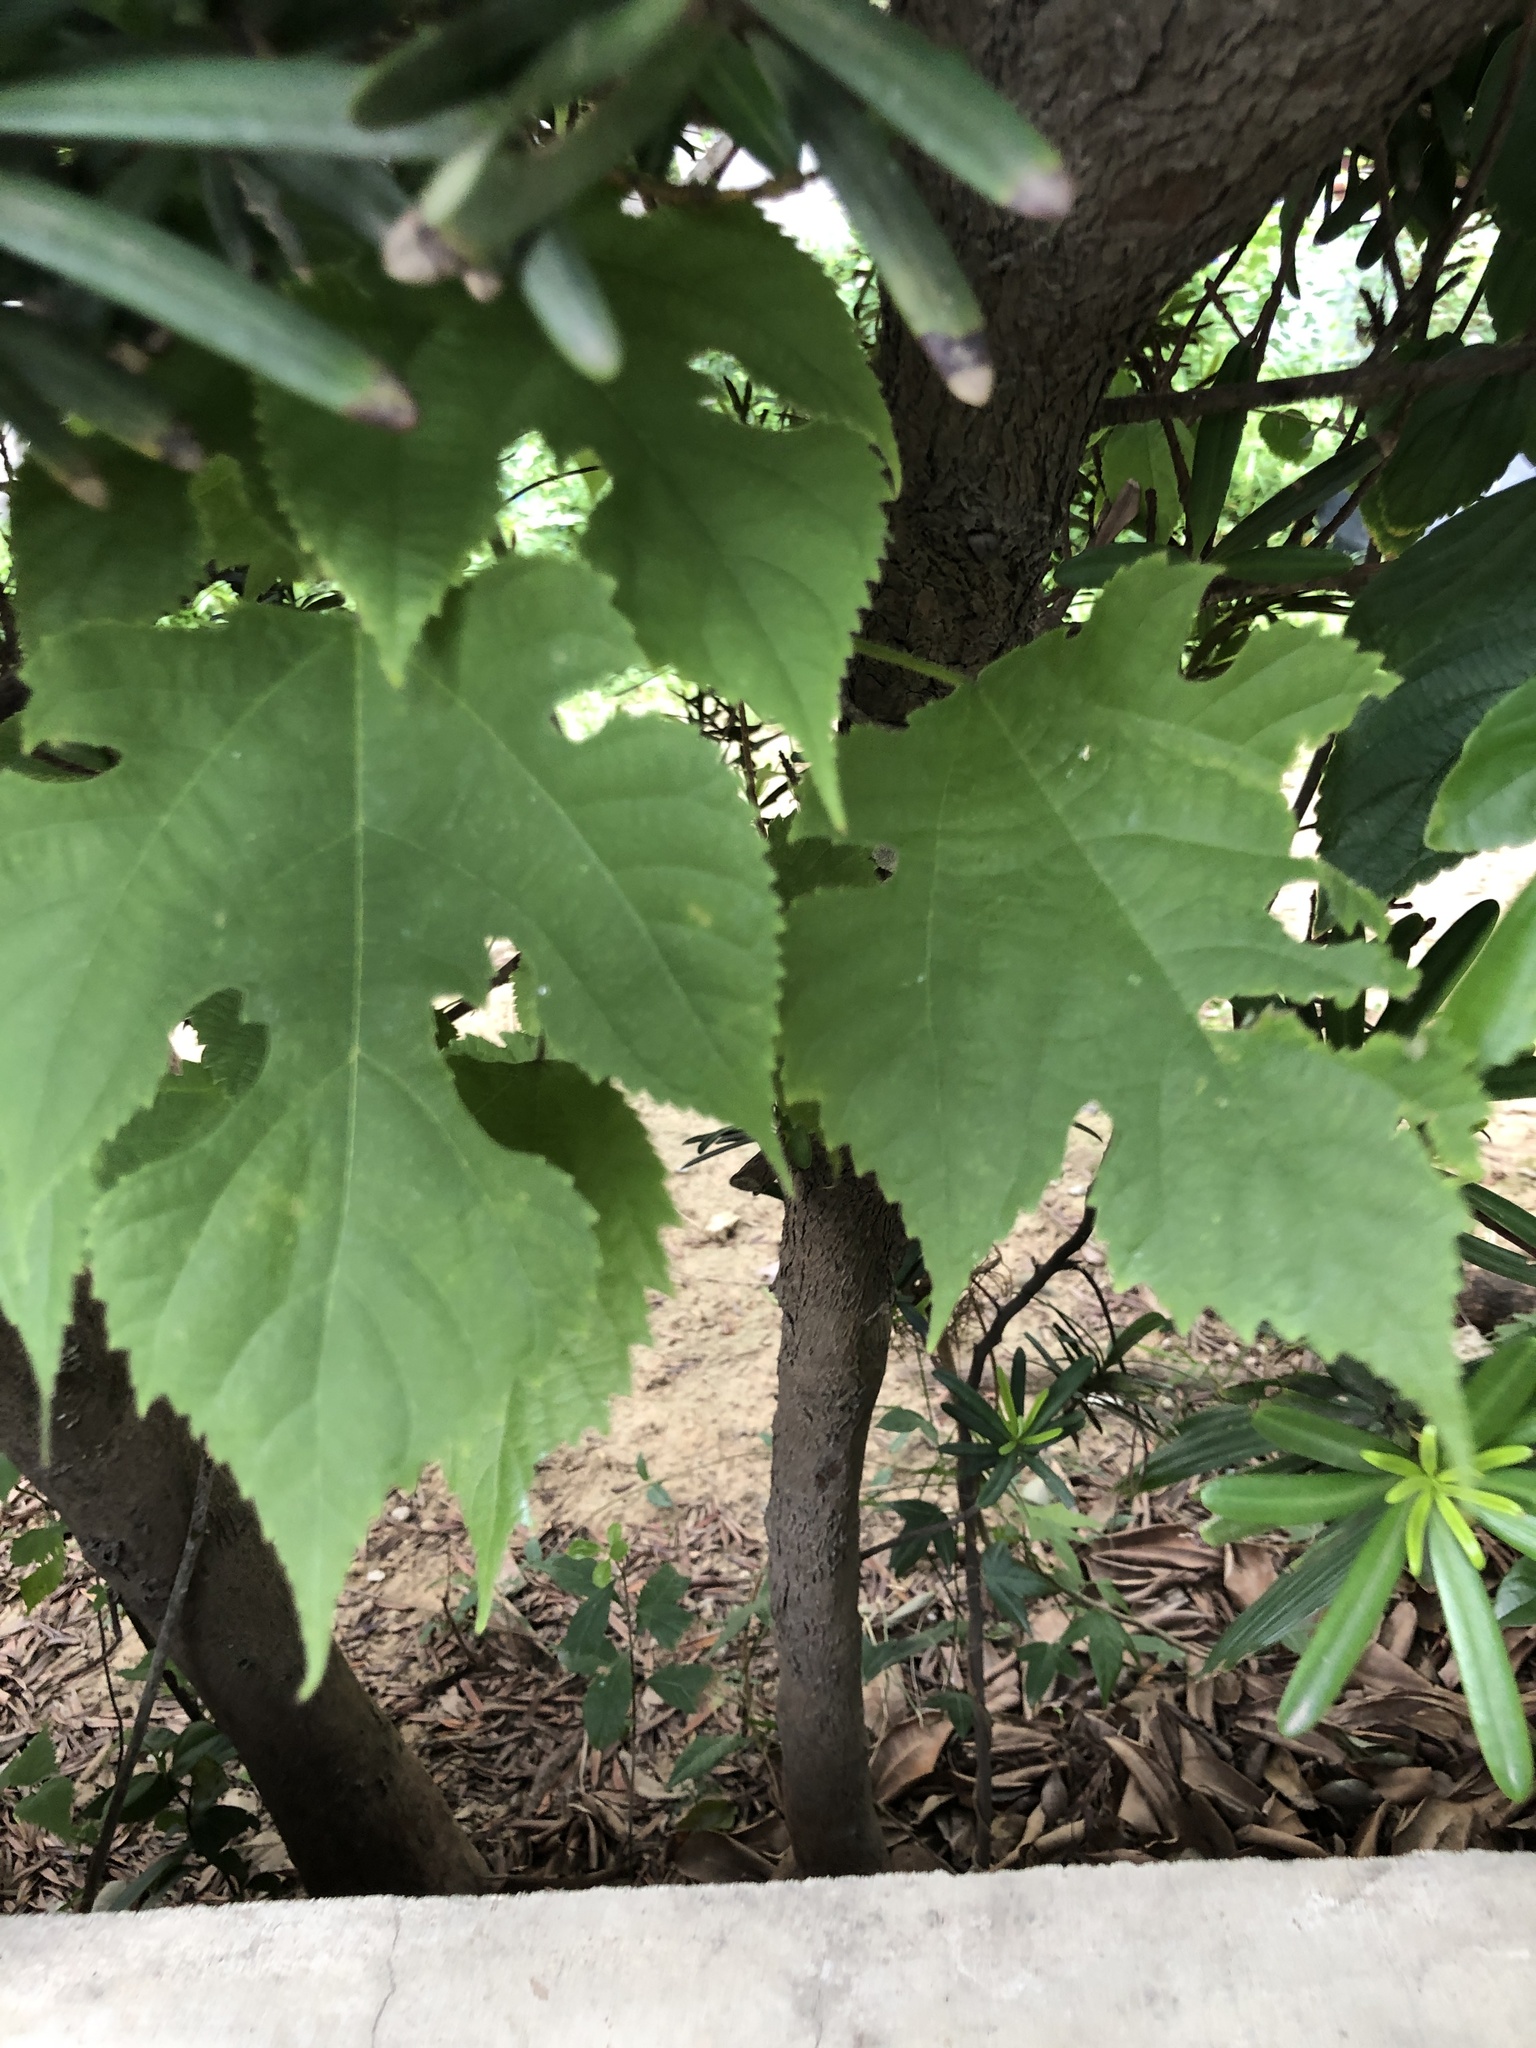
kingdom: Plantae
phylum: Tracheophyta
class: Magnoliopsida
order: Rosales
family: Moraceae
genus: Broussonetia
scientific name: Broussonetia papyrifera
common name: Paper mulberry
